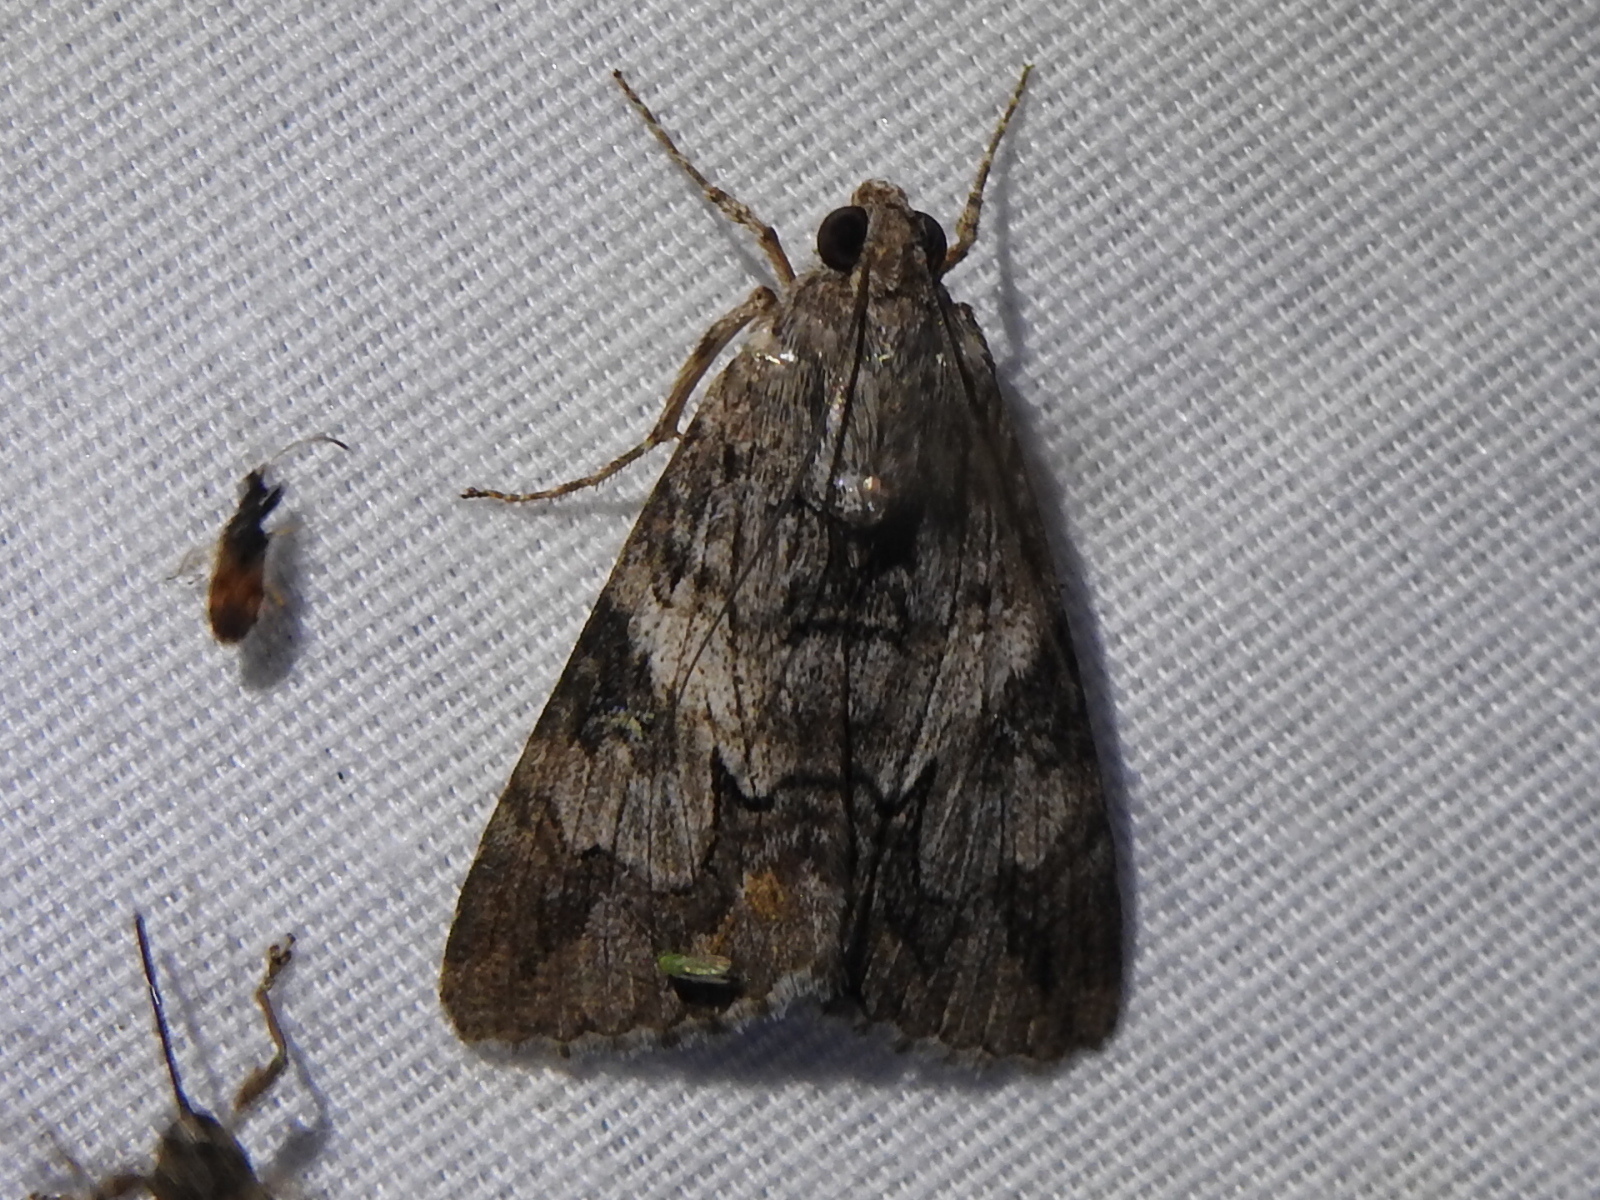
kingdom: Animalia
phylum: Arthropoda
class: Insecta
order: Lepidoptera
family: Erebidae
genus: Melipotis
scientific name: Melipotis jucunda
